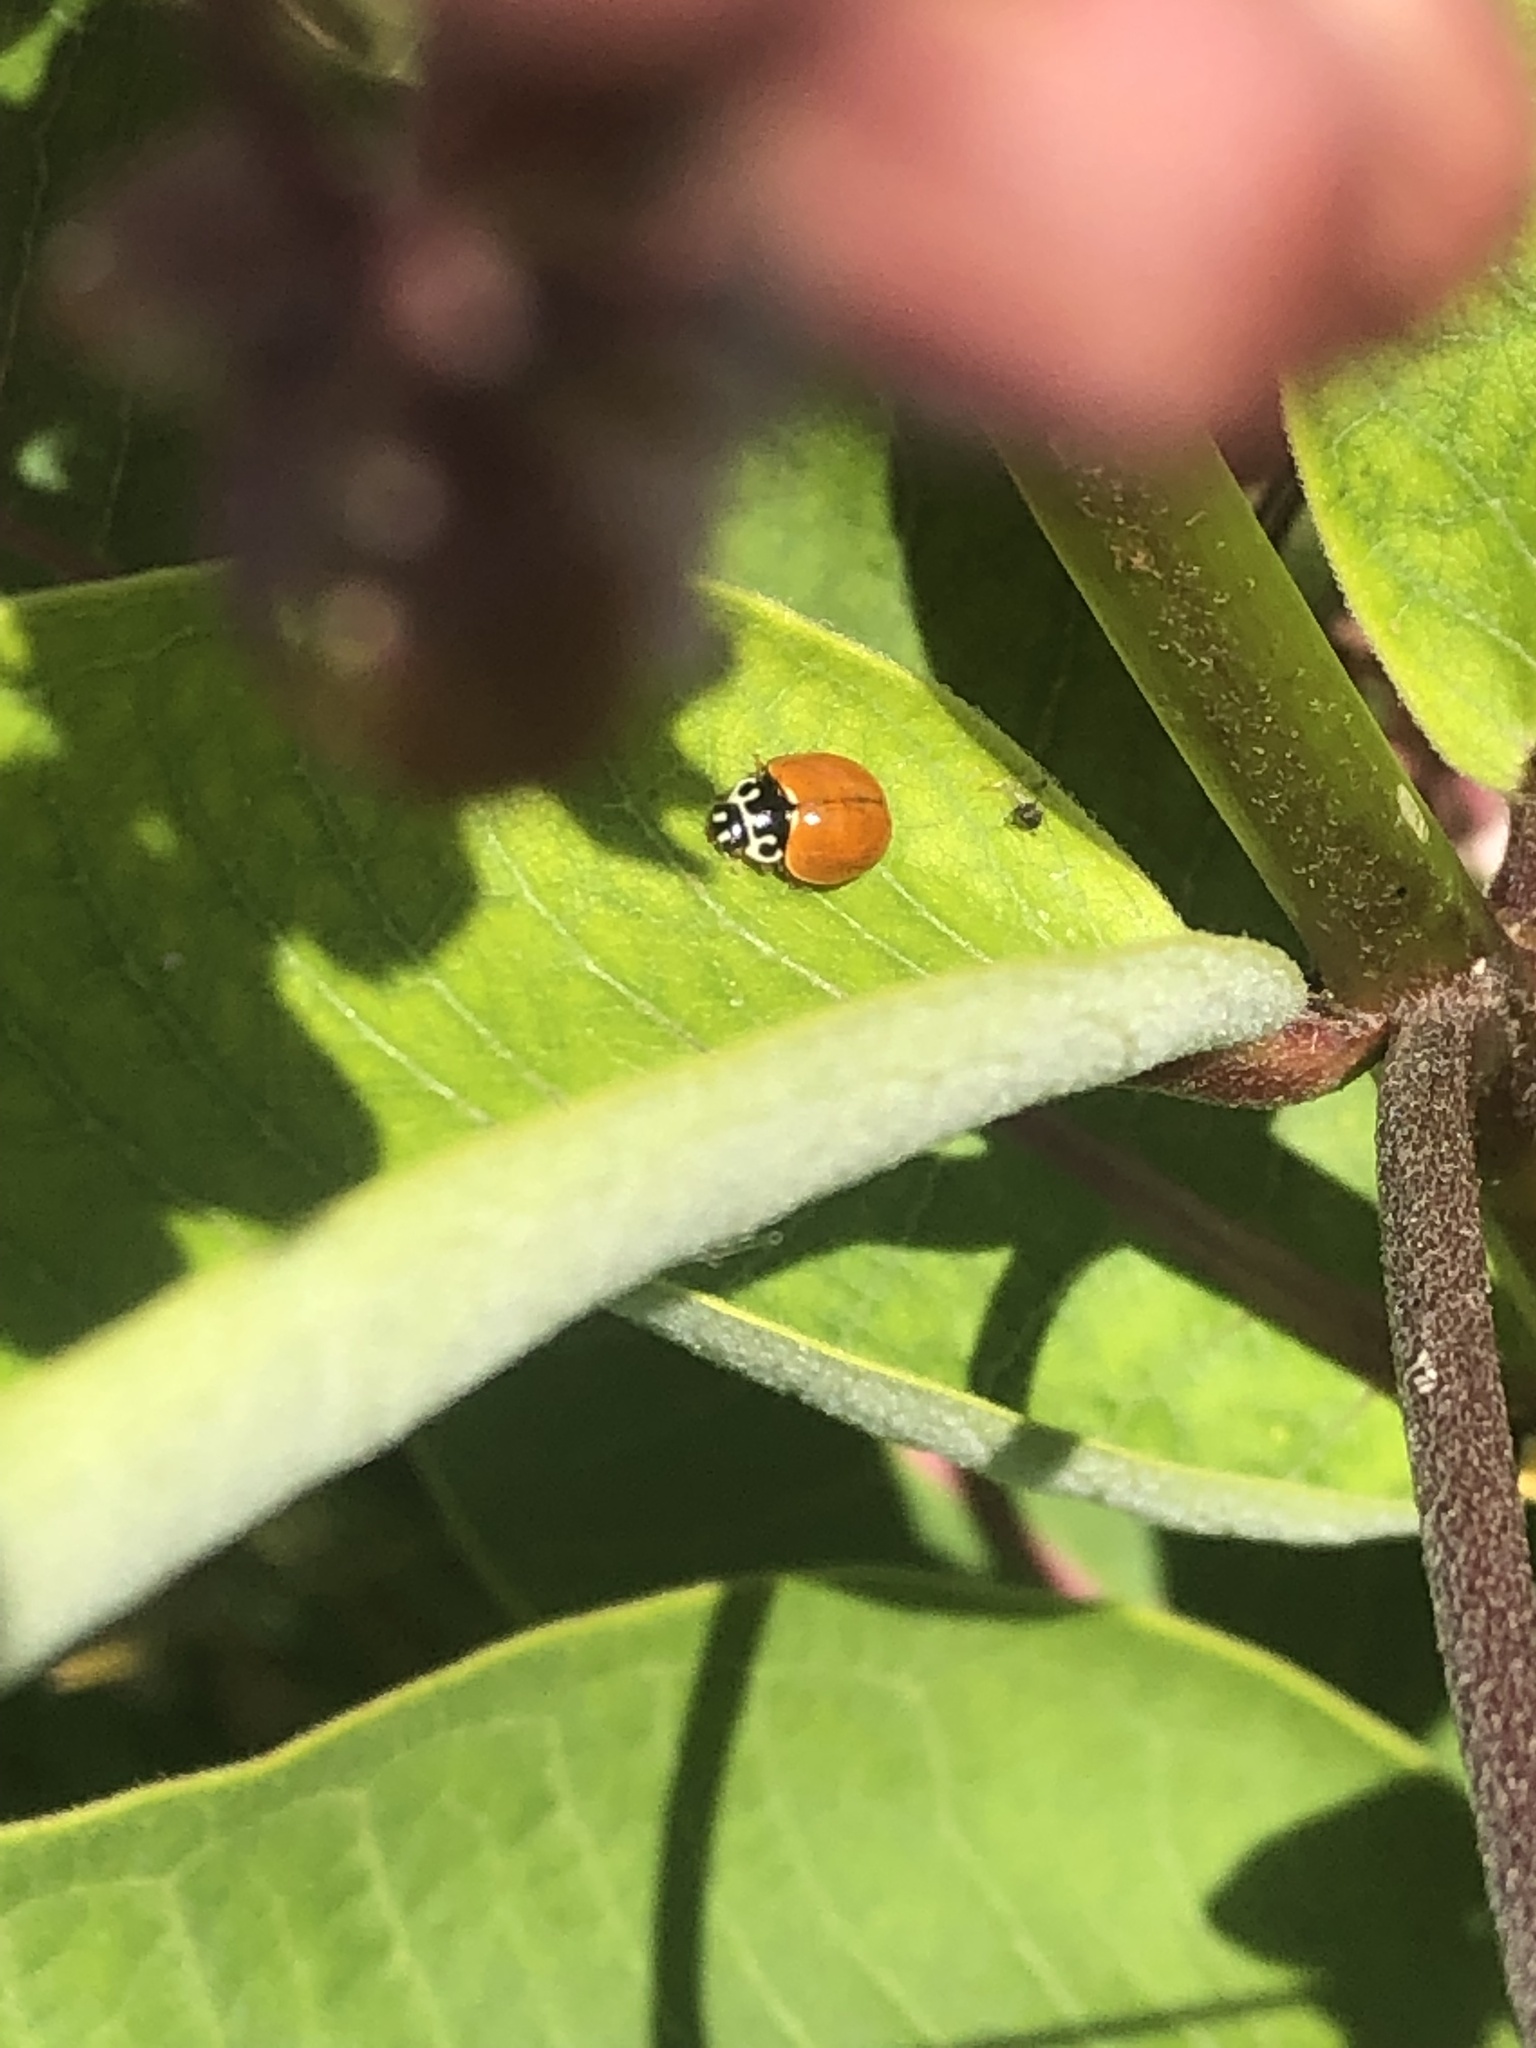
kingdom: Animalia
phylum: Arthropoda
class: Insecta
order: Coleoptera
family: Coccinellidae
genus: Cycloneda
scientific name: Cycloneda munda
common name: Polished lady beetle
